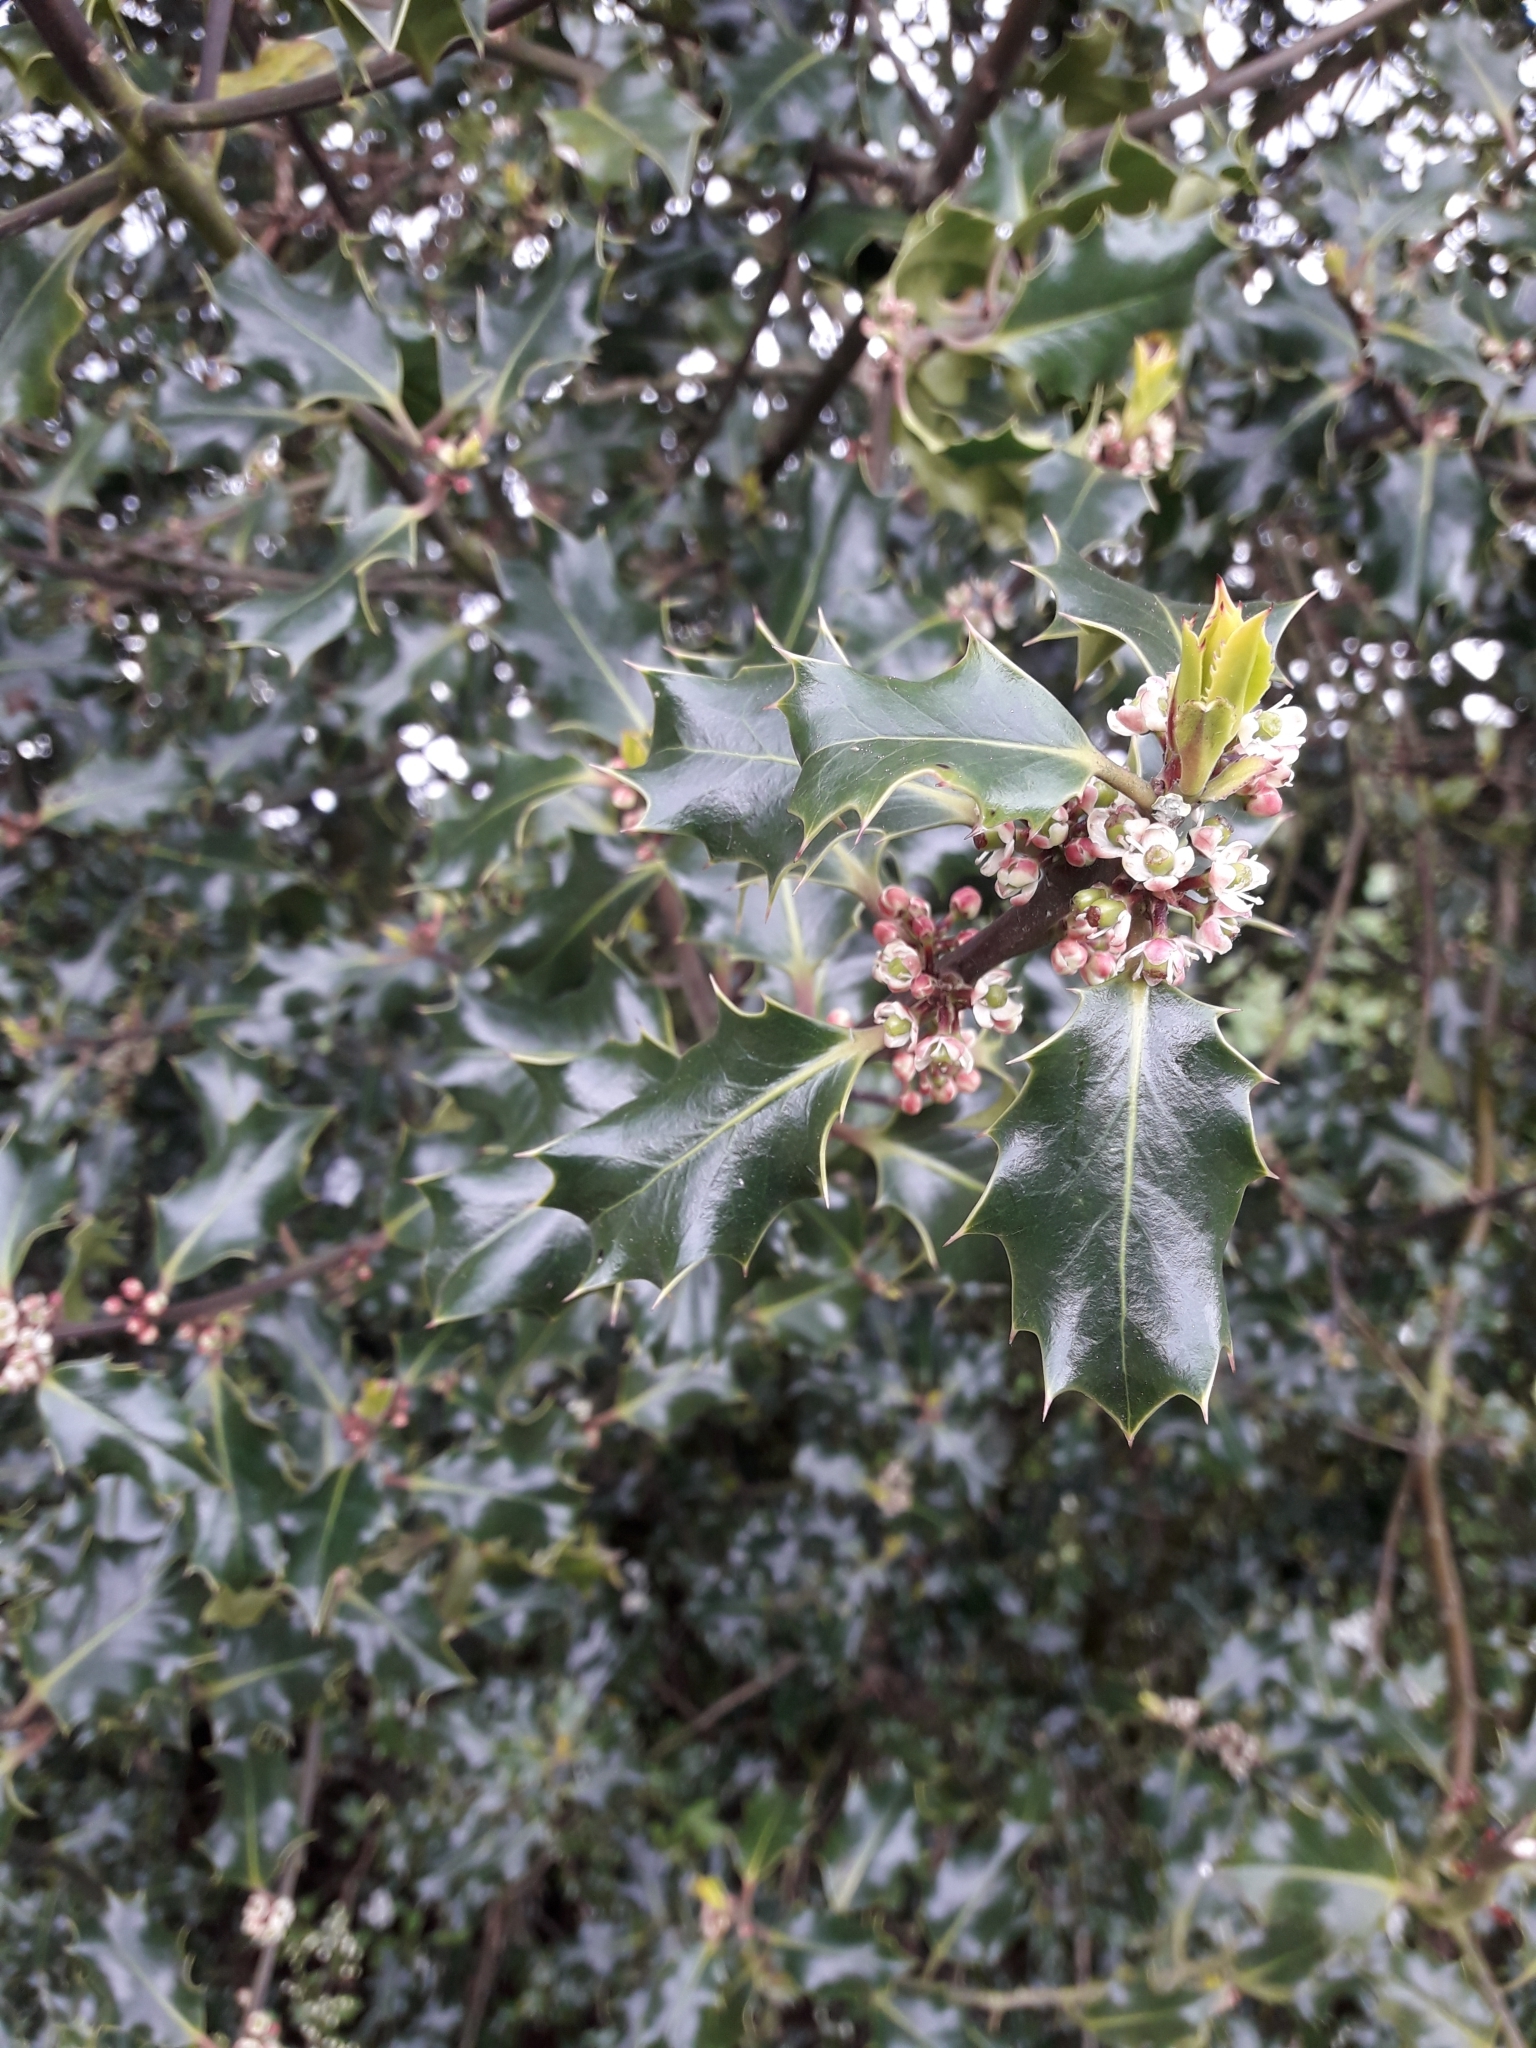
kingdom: Plantae
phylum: Tracheophyta
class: Magnoliopsida
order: Aquifoliales
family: Aquifoliaceae
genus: Ilex
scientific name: Ilex aquifolium
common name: English holly
